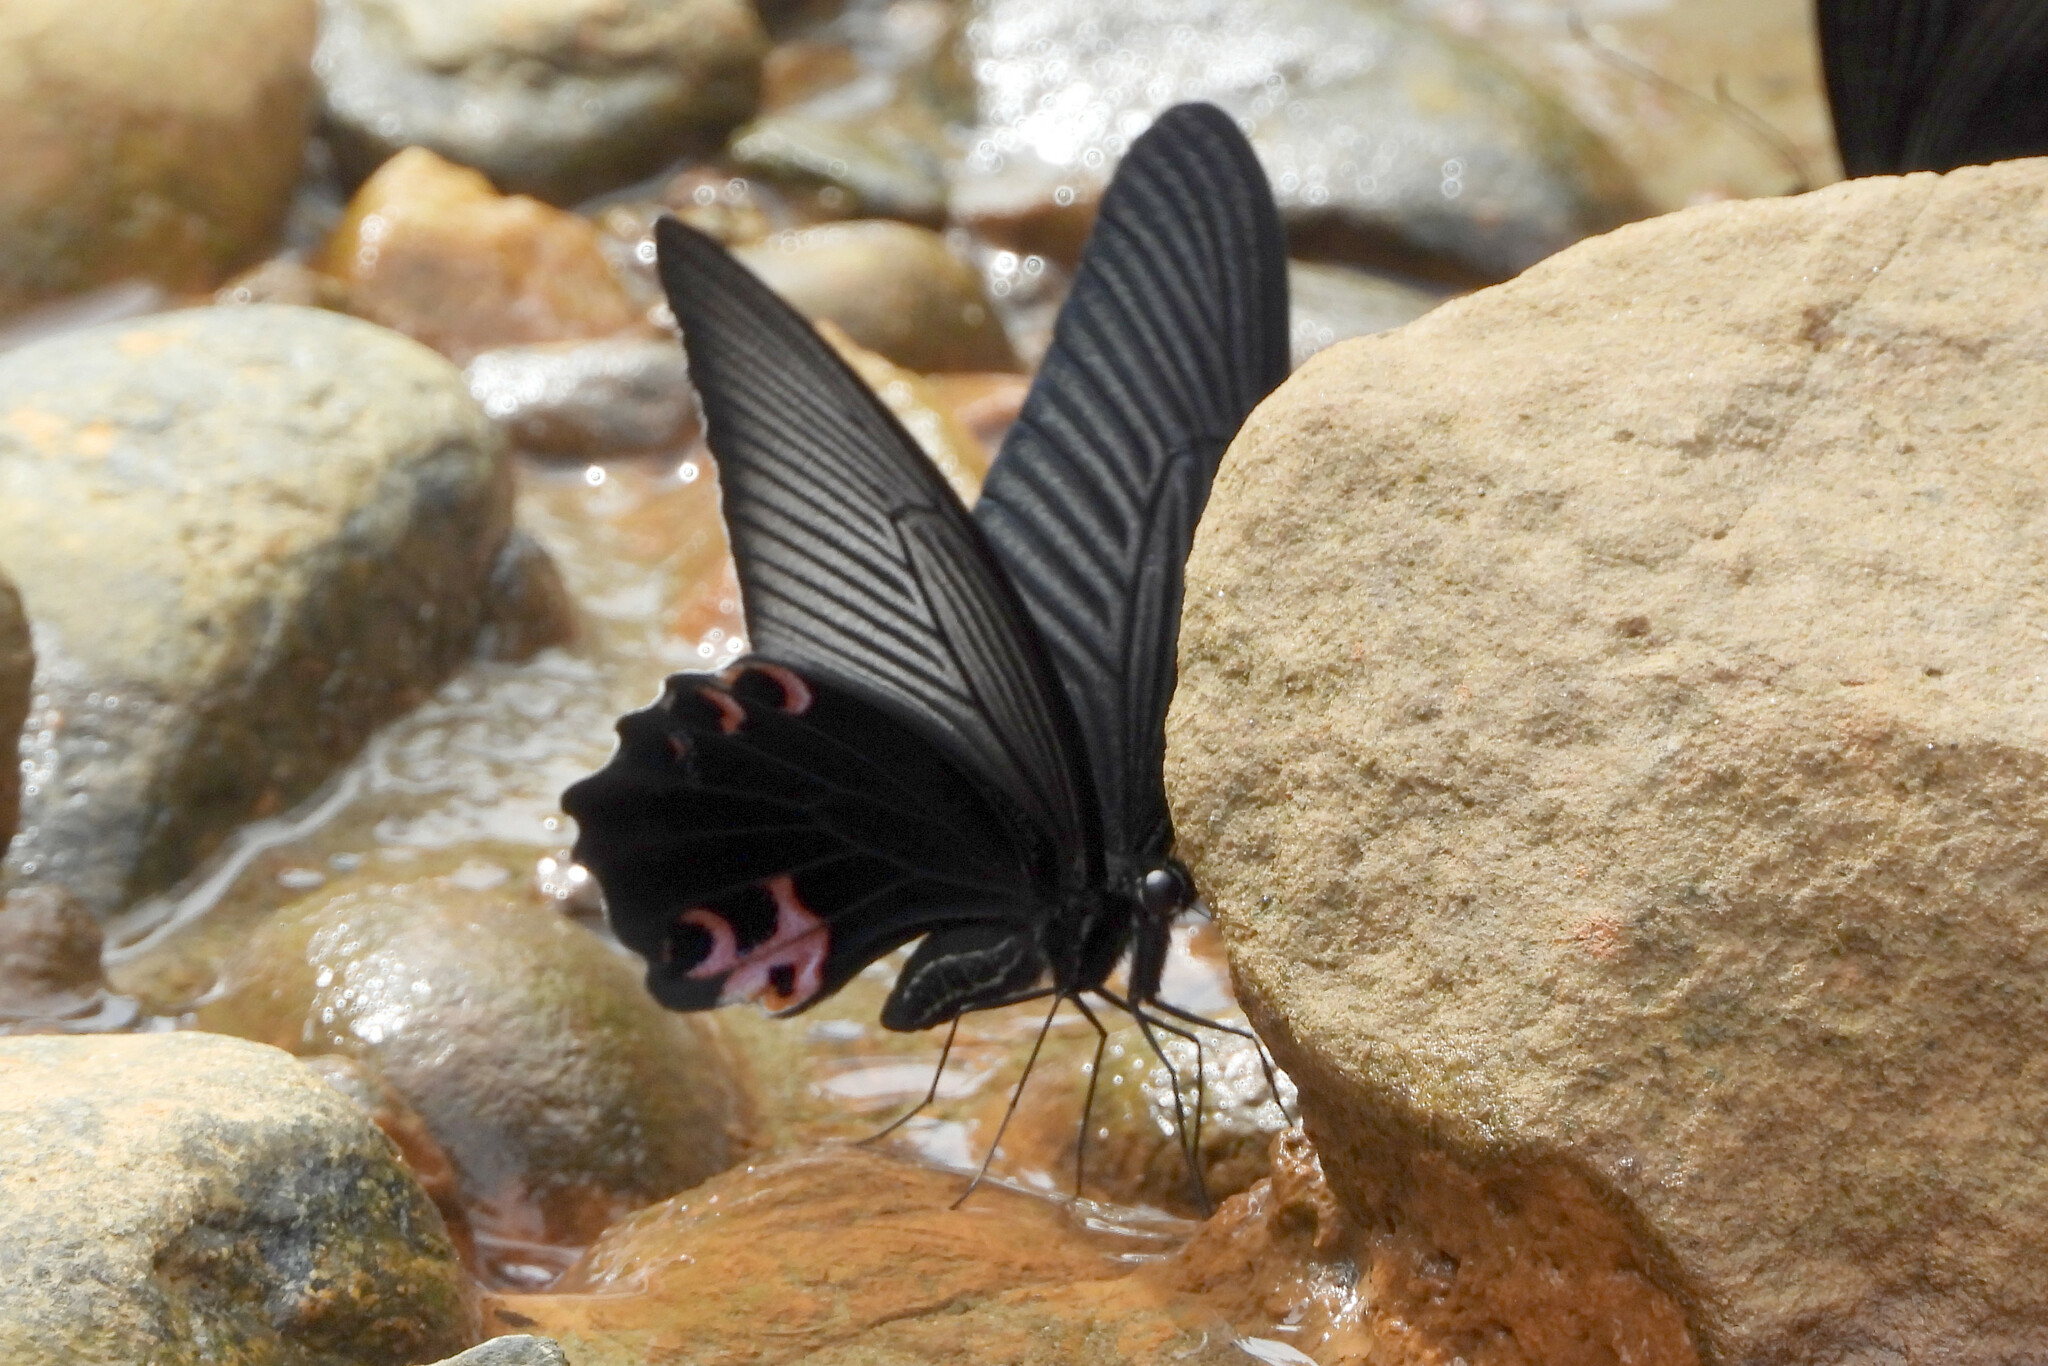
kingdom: Animalia
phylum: Arthropoda
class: Insecta
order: Lepidoptera
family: Papilionidae
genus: Papilio
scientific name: Papilio protenor
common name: Spangle
